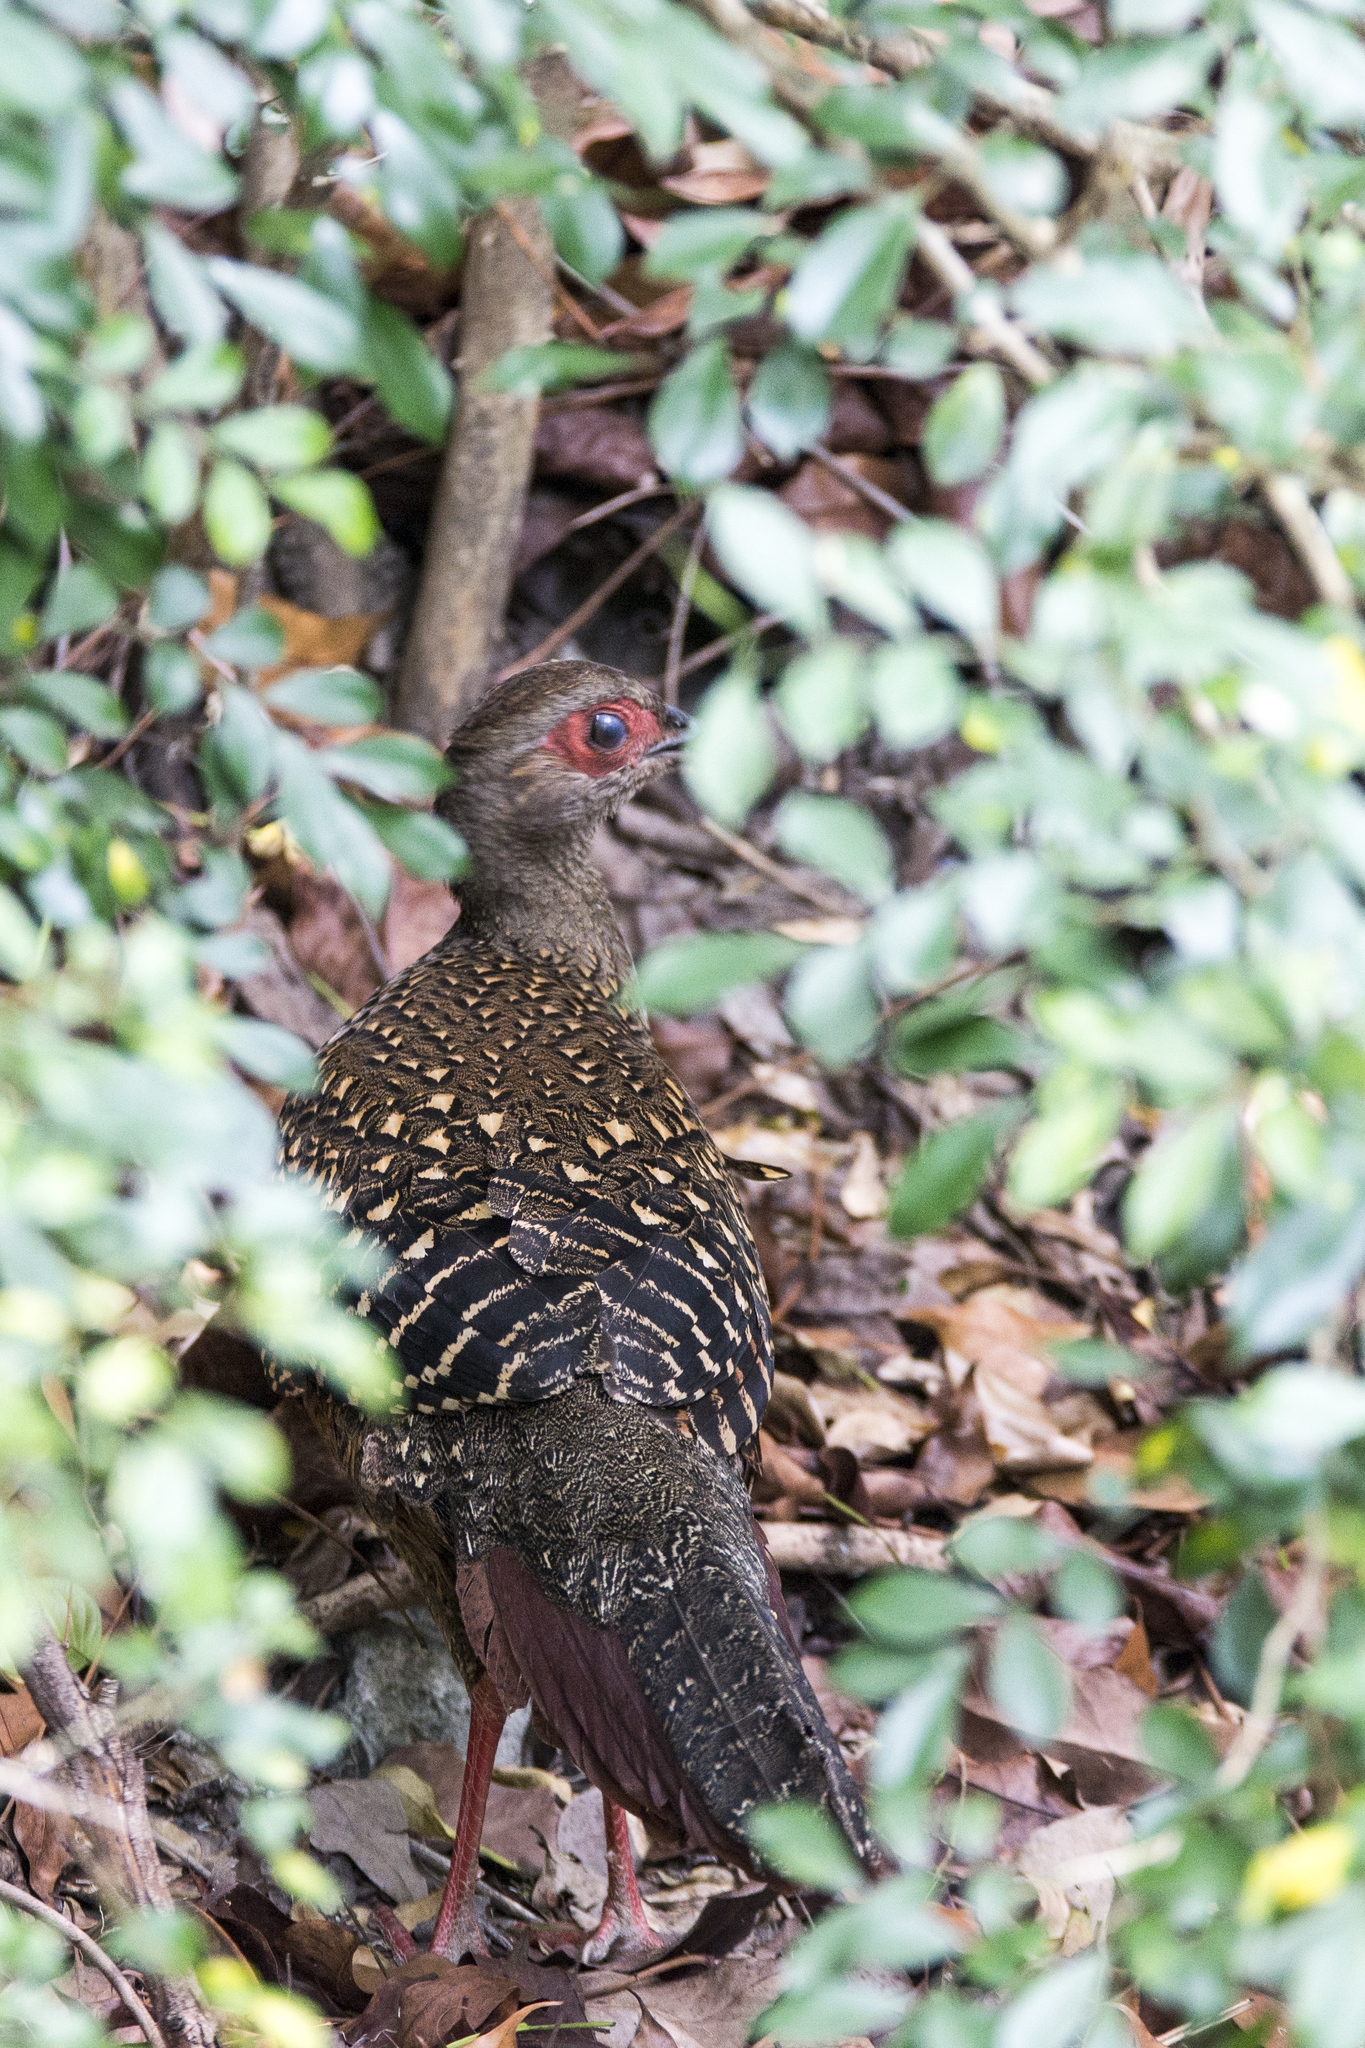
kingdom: Animalia
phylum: Chordata
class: Aves
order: Galliformes
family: Phasianidae
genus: Lophura
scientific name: Lophura swinhoii
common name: Swinhoe's pheasant
